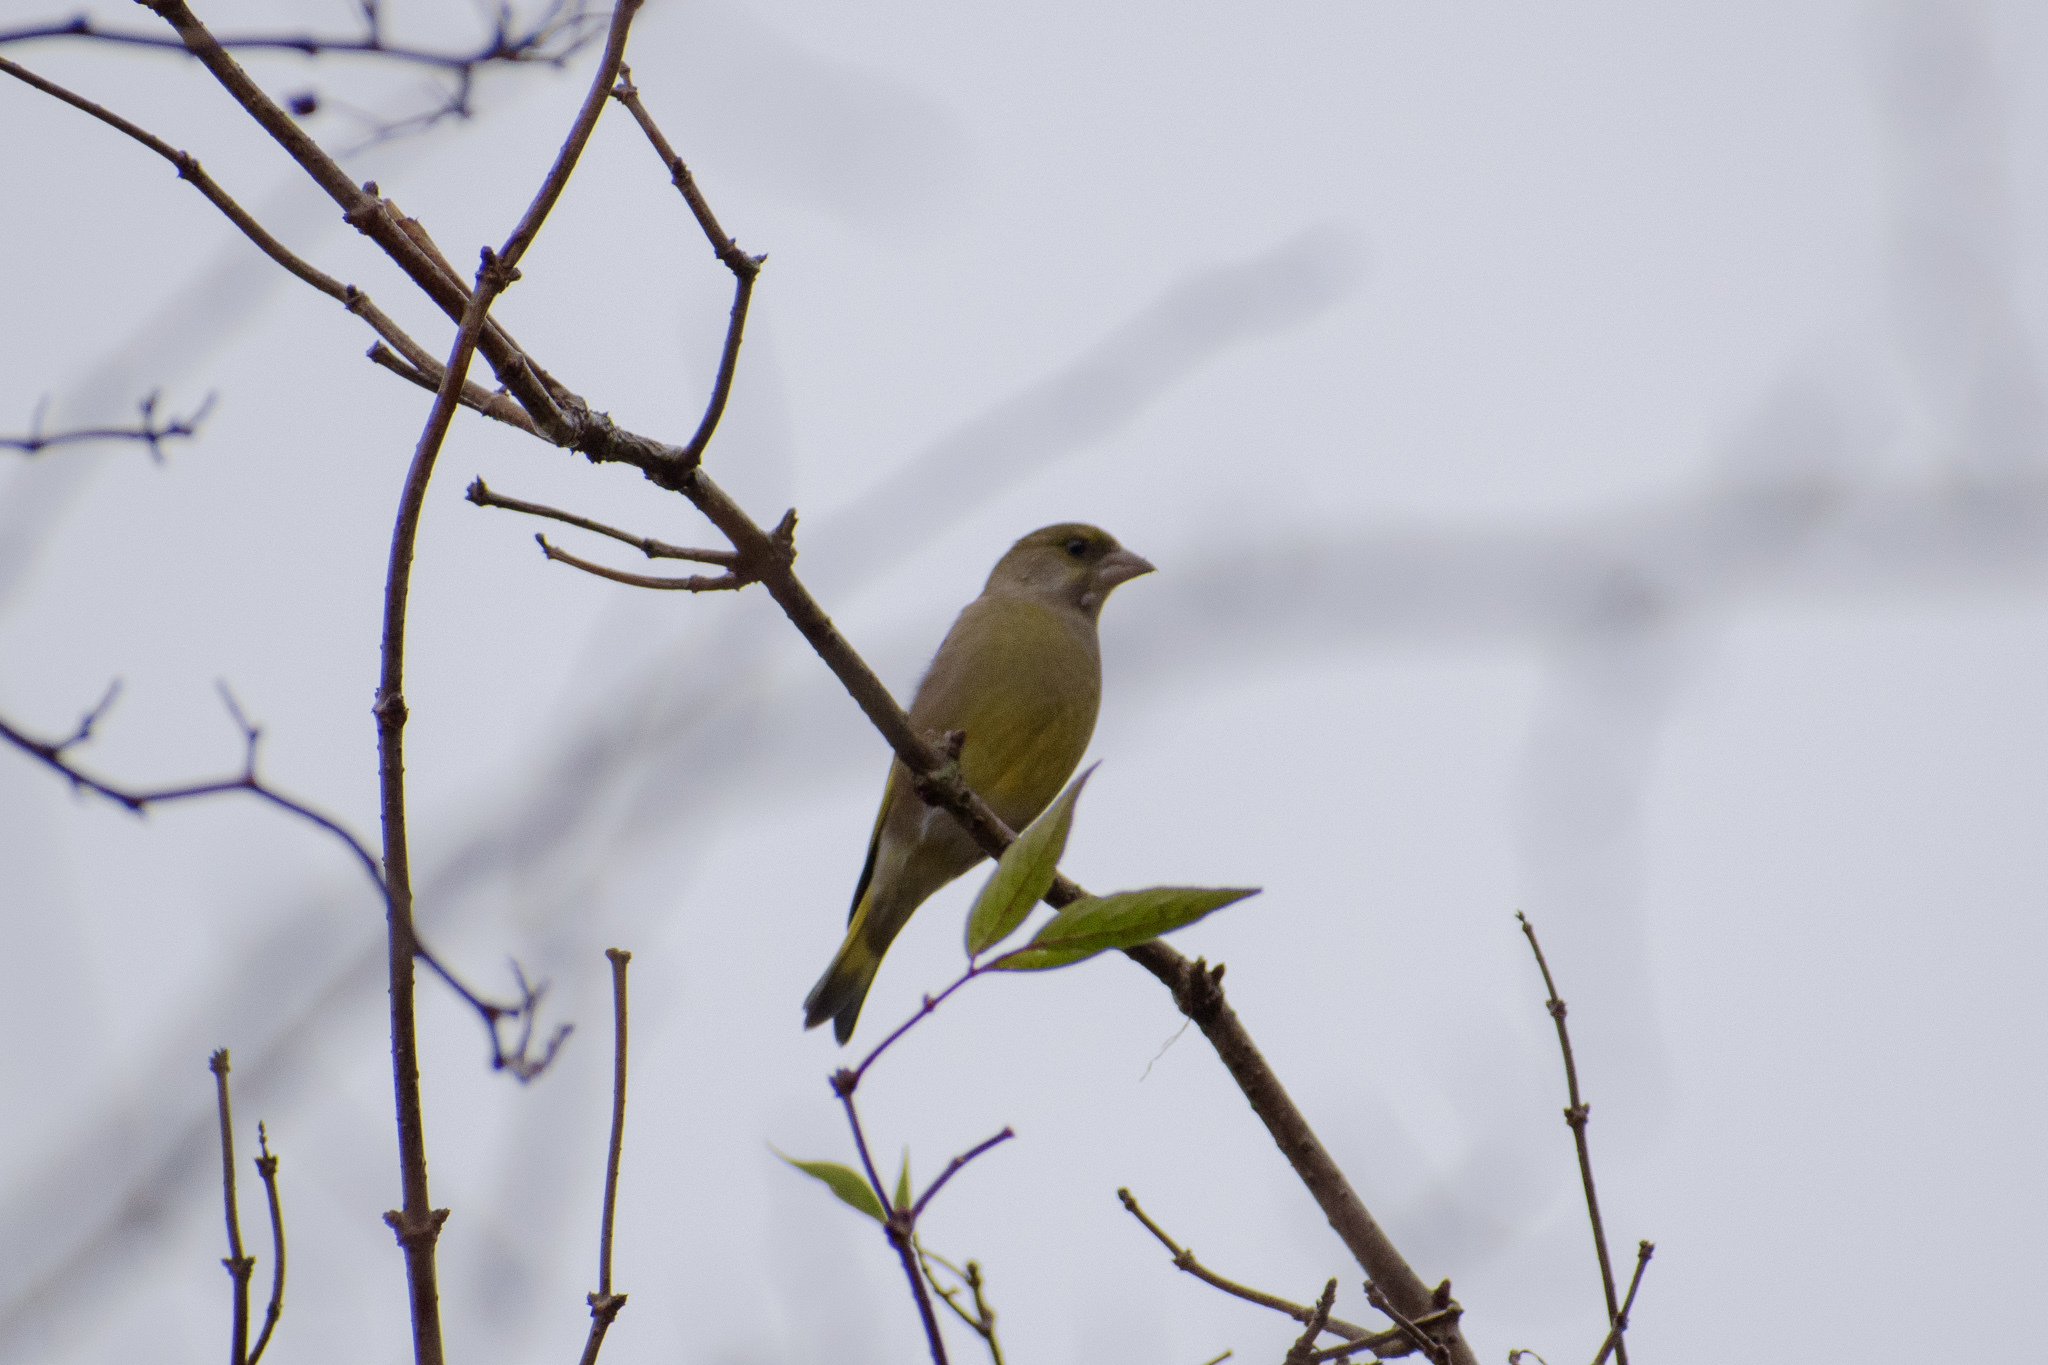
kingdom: Plantae
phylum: Tracheophyta
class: Liliopsida
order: Poales
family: Poaceae
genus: Chloris
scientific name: Chloris chloris
